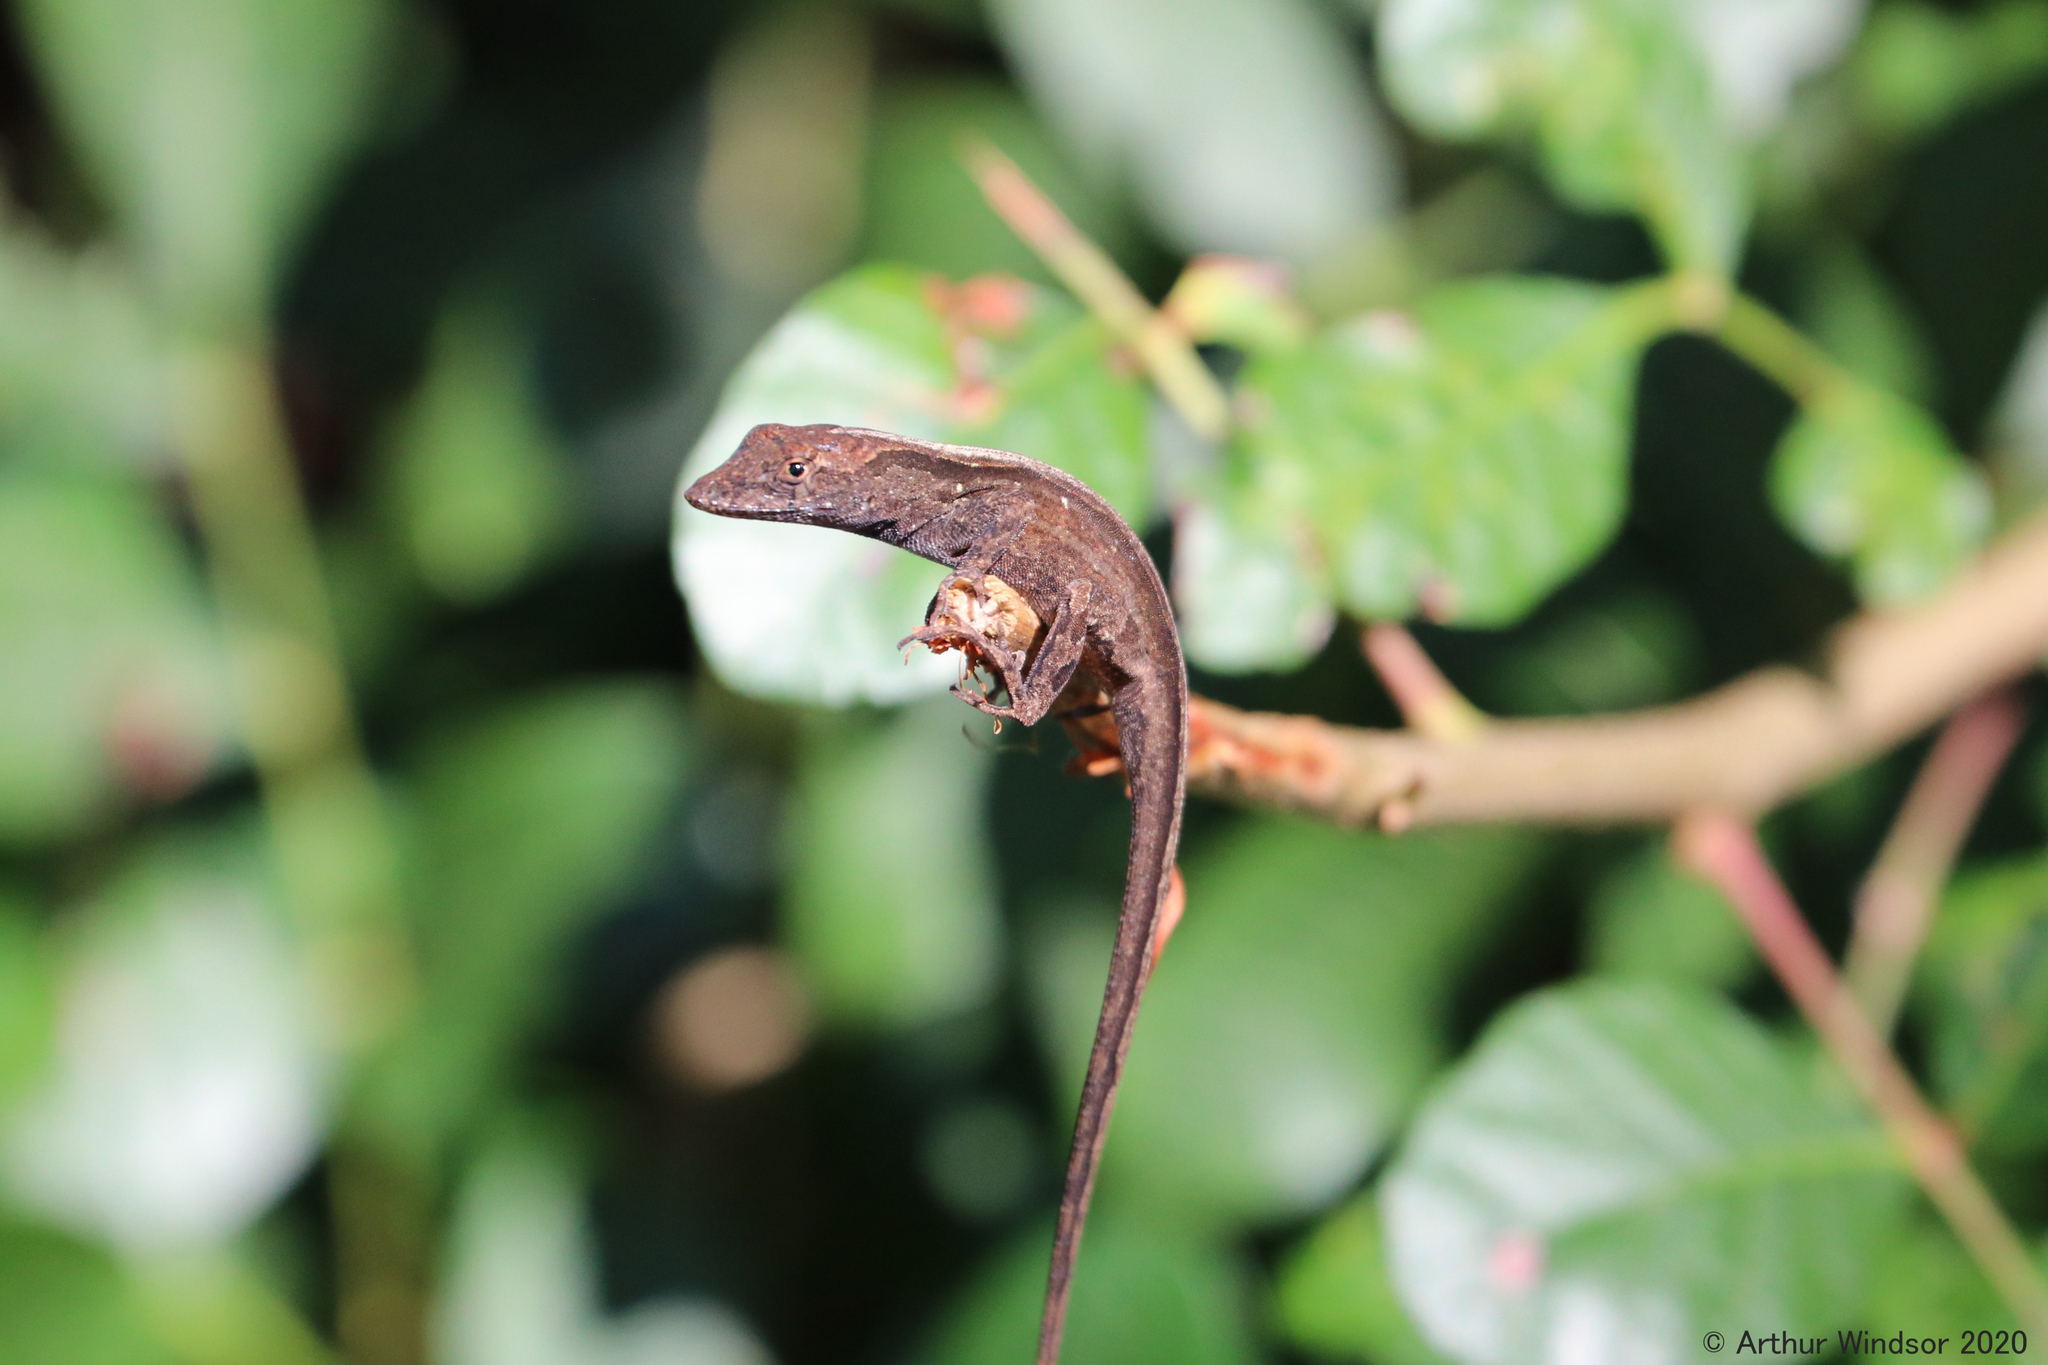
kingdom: Animalia
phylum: Chordata
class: Squamata
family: Dactyloidae
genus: Anolis
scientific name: Anolis sagrei
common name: Brown anole
